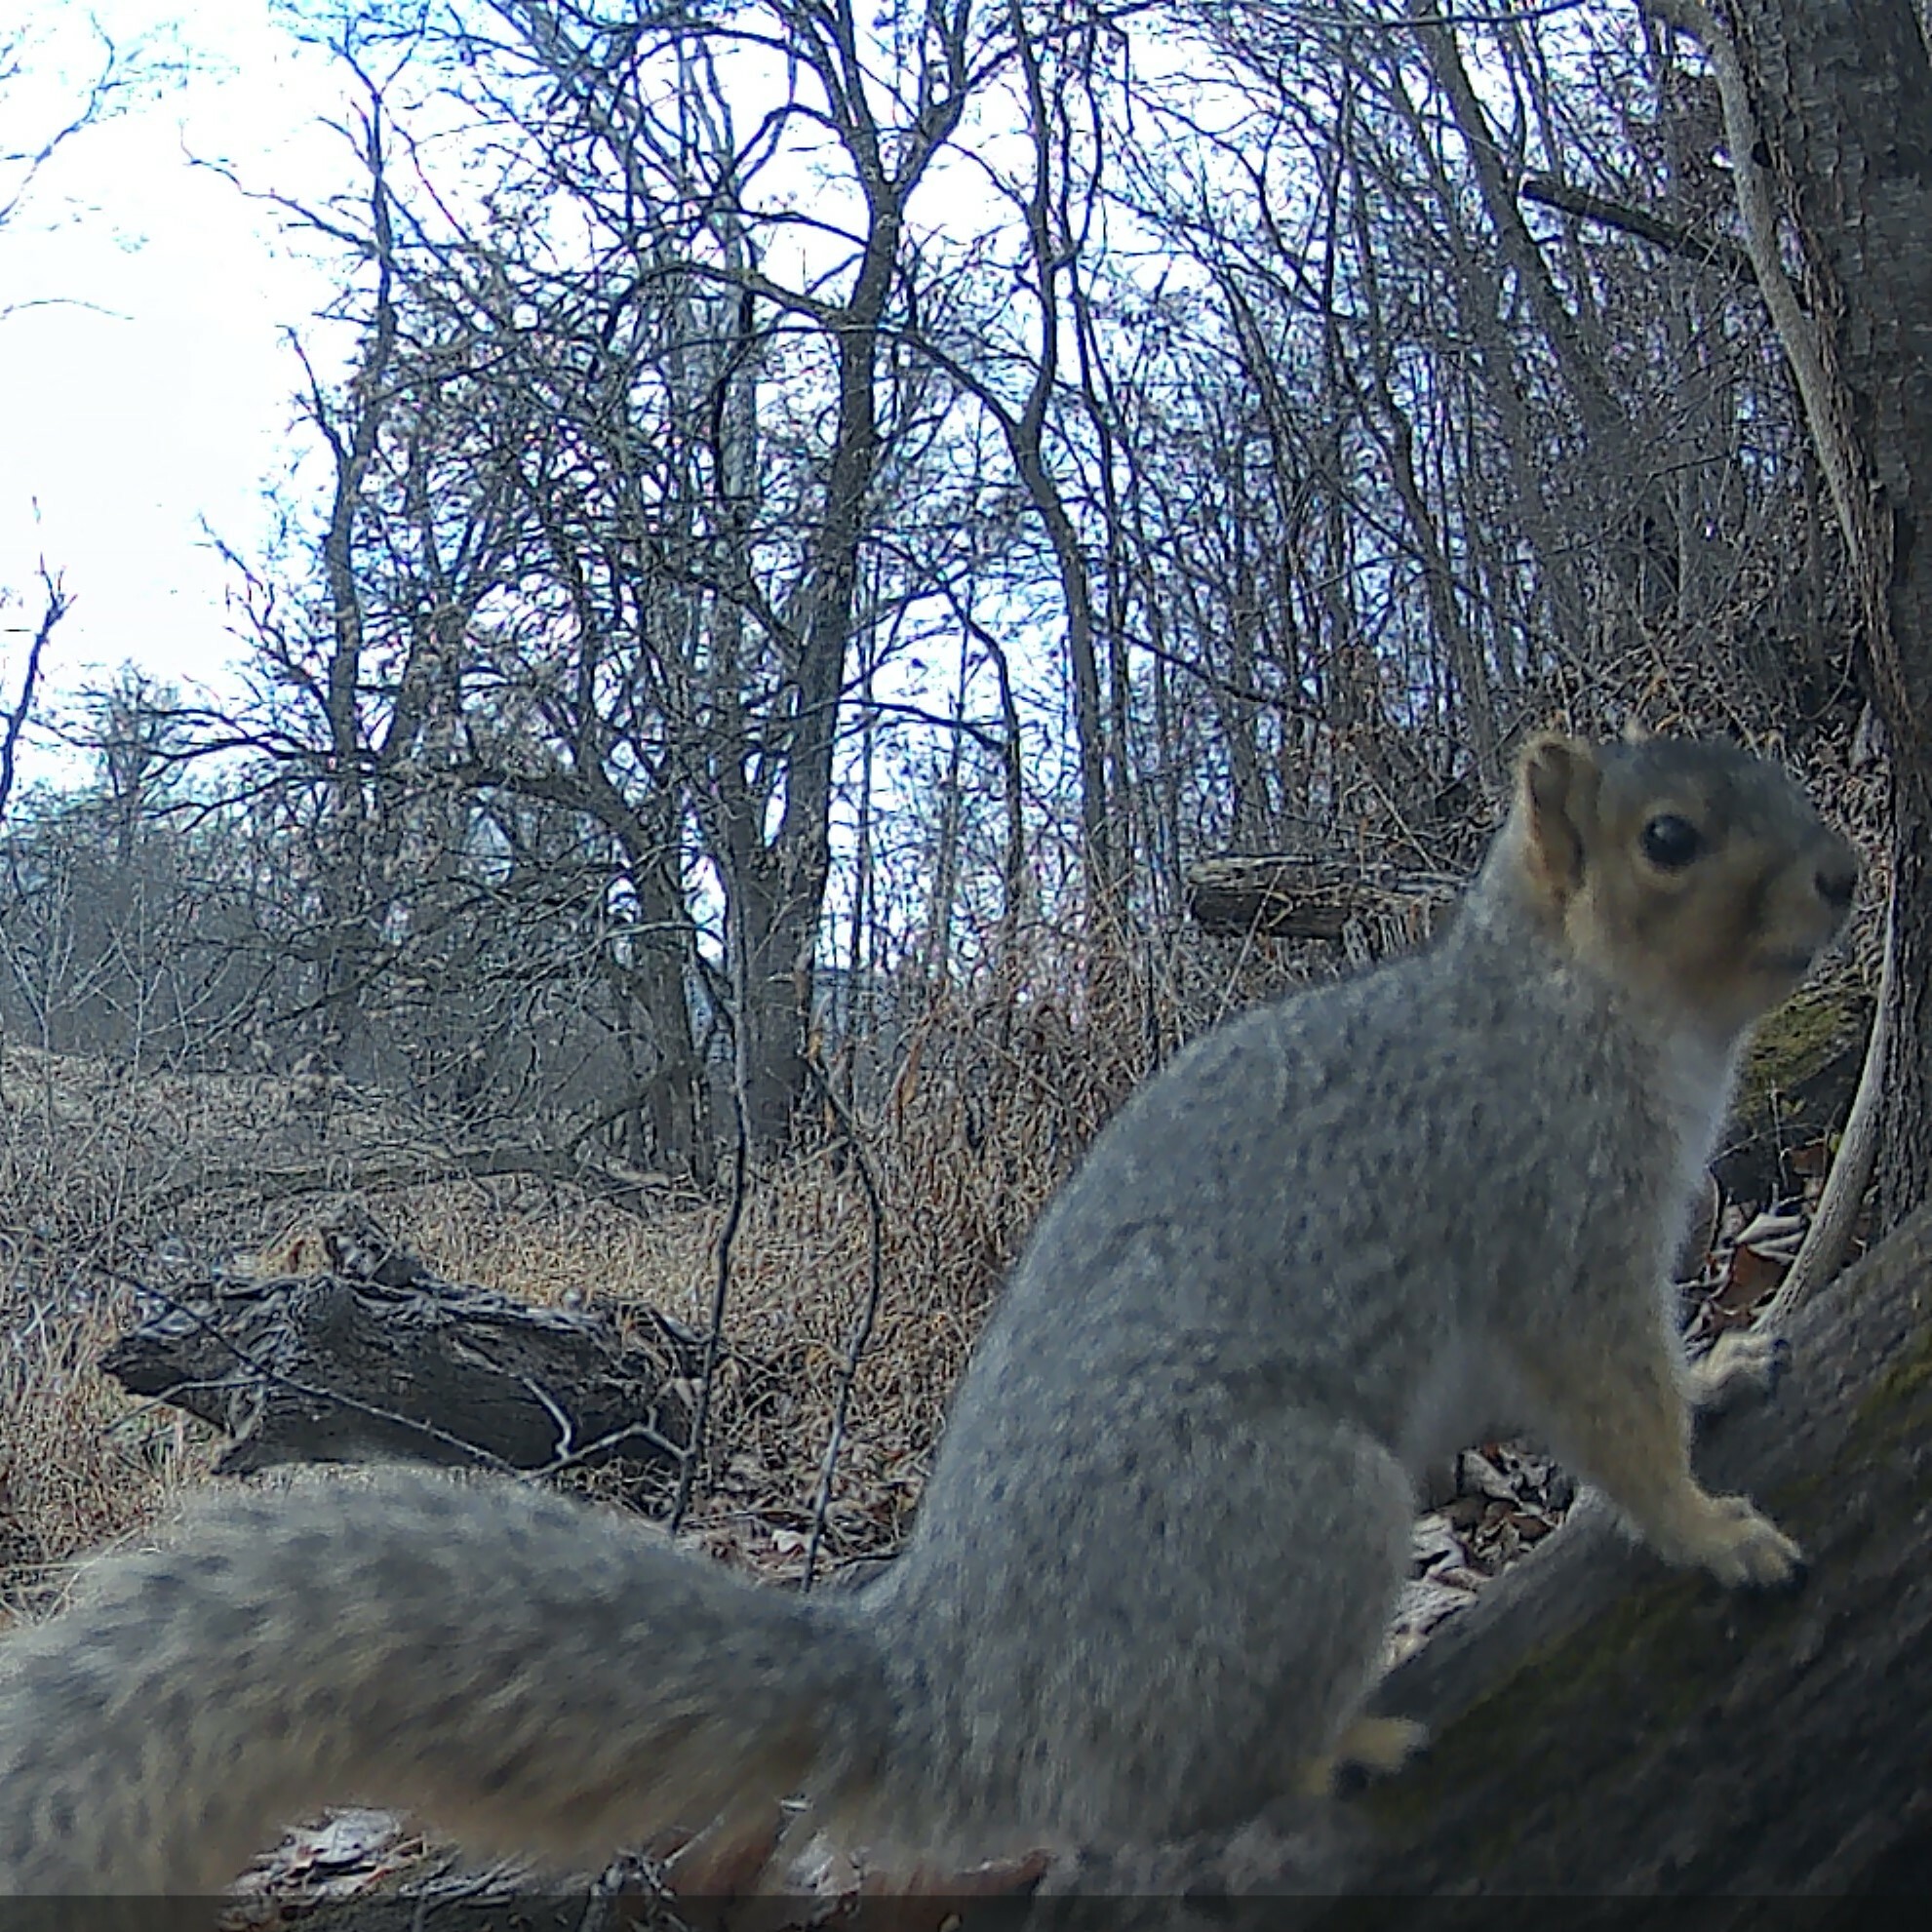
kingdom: Animalia
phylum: Chordata
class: Mammalia
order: Rodentia
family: Sciuridae
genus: Sciurus
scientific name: Sciurus niger
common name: Fox squirrel
